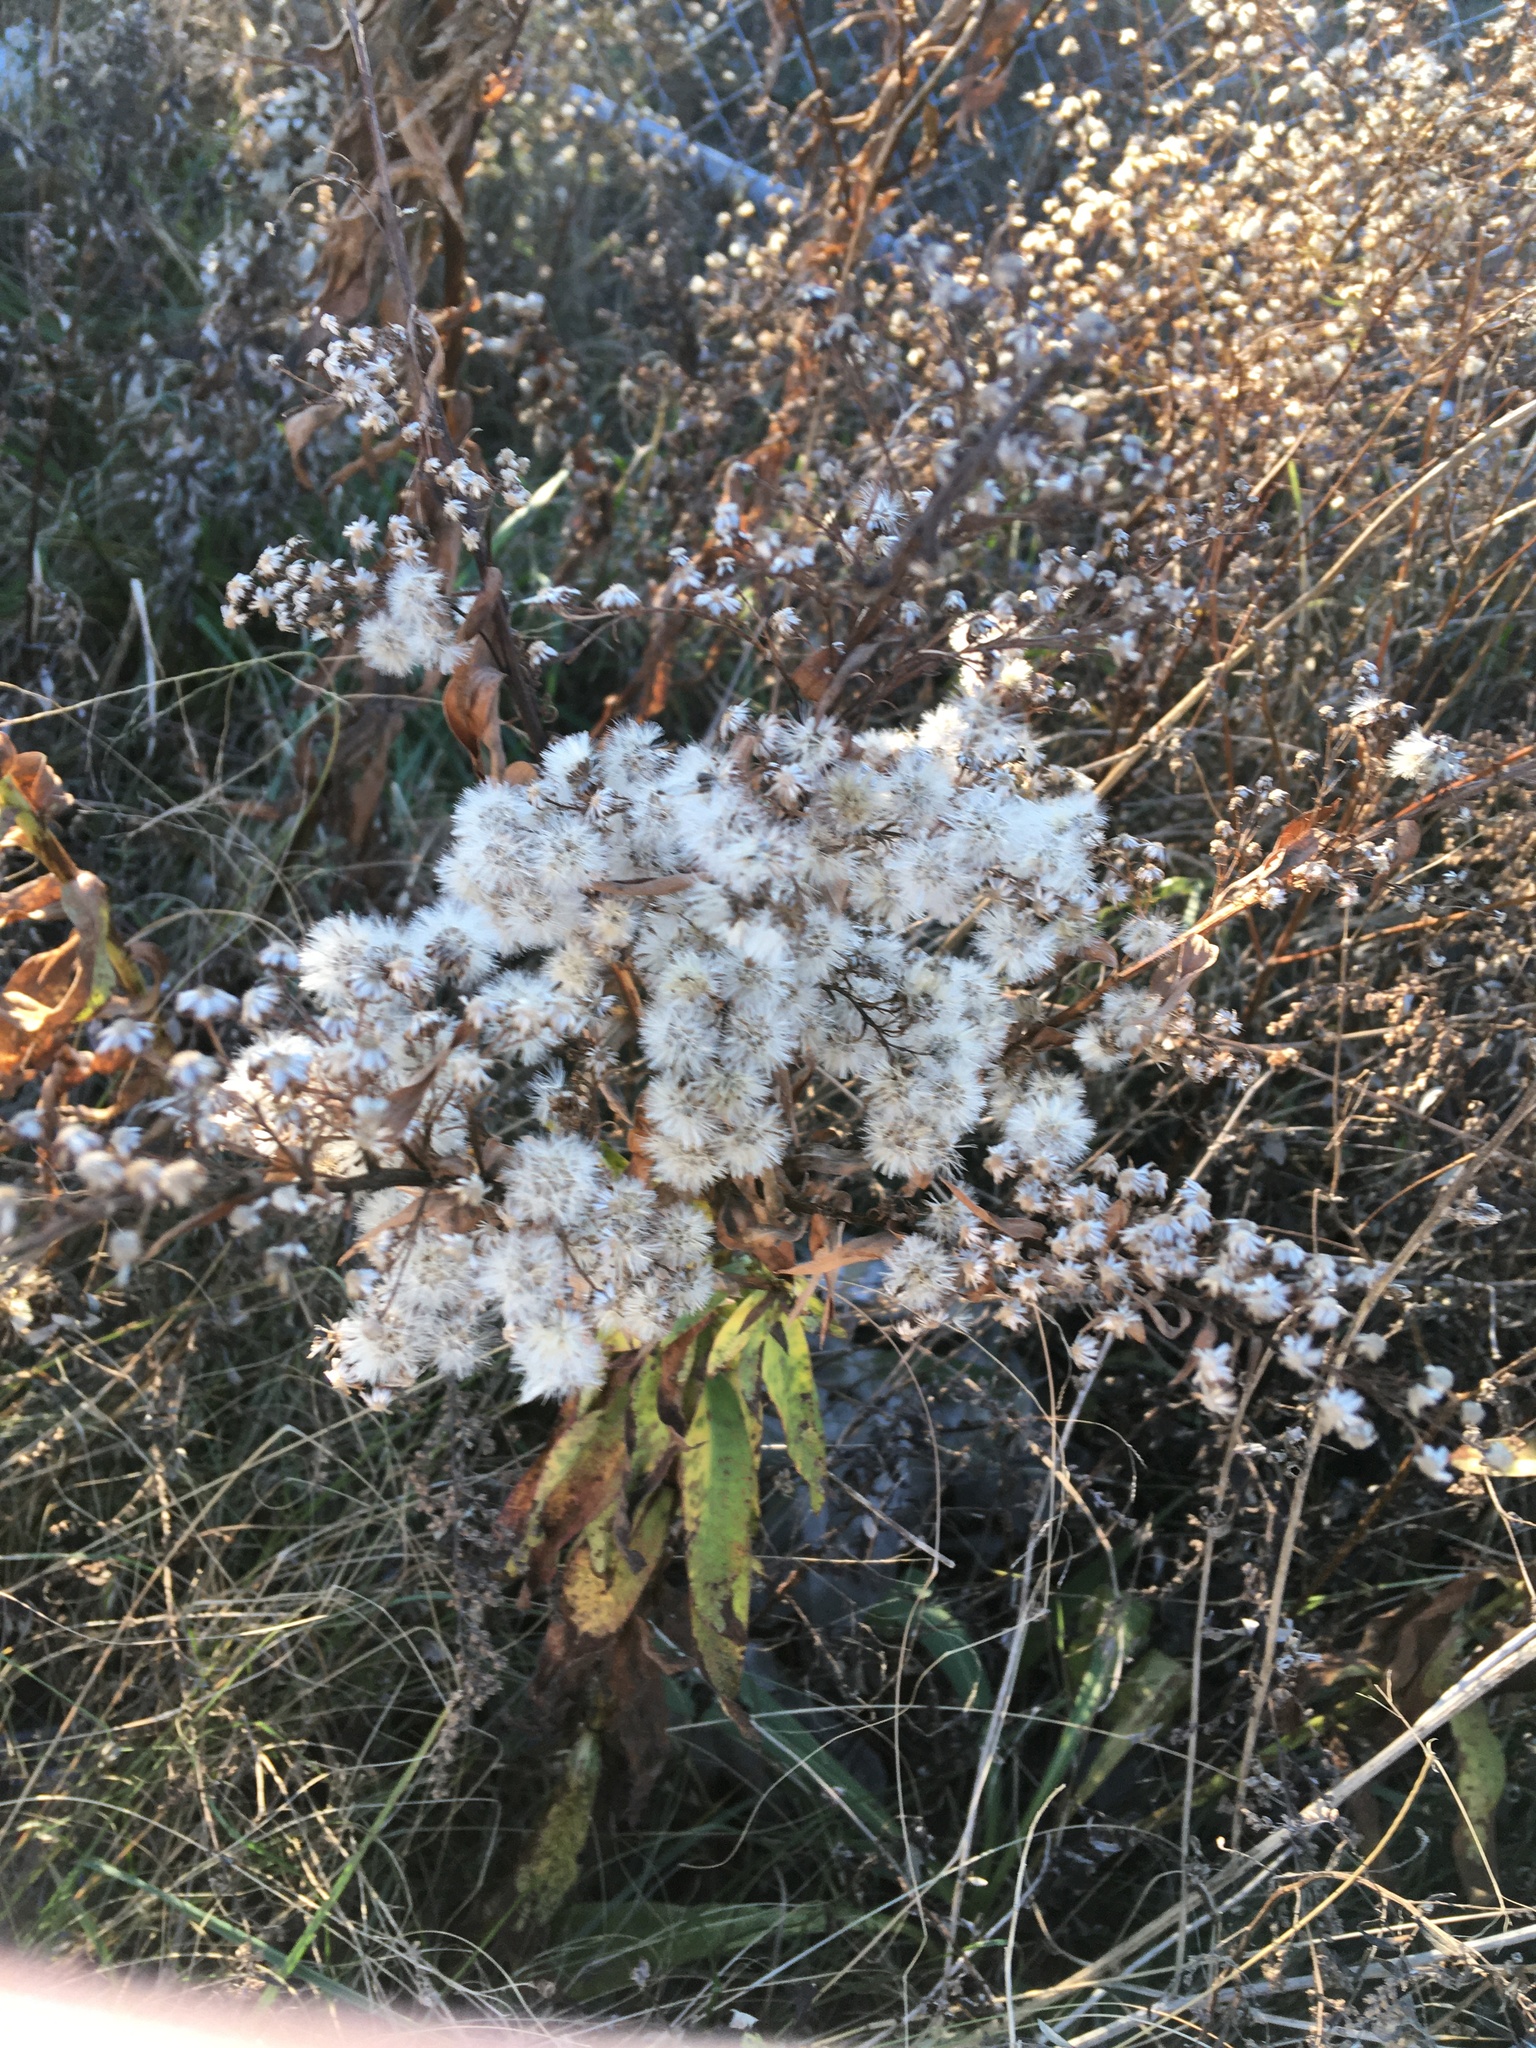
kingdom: Plantae
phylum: Tracheophyta
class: Magnoliopsida
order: Asterales
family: Asteraceae
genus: Solidago
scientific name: Solidago sempervirens
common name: Salt-marsh goldenrod
